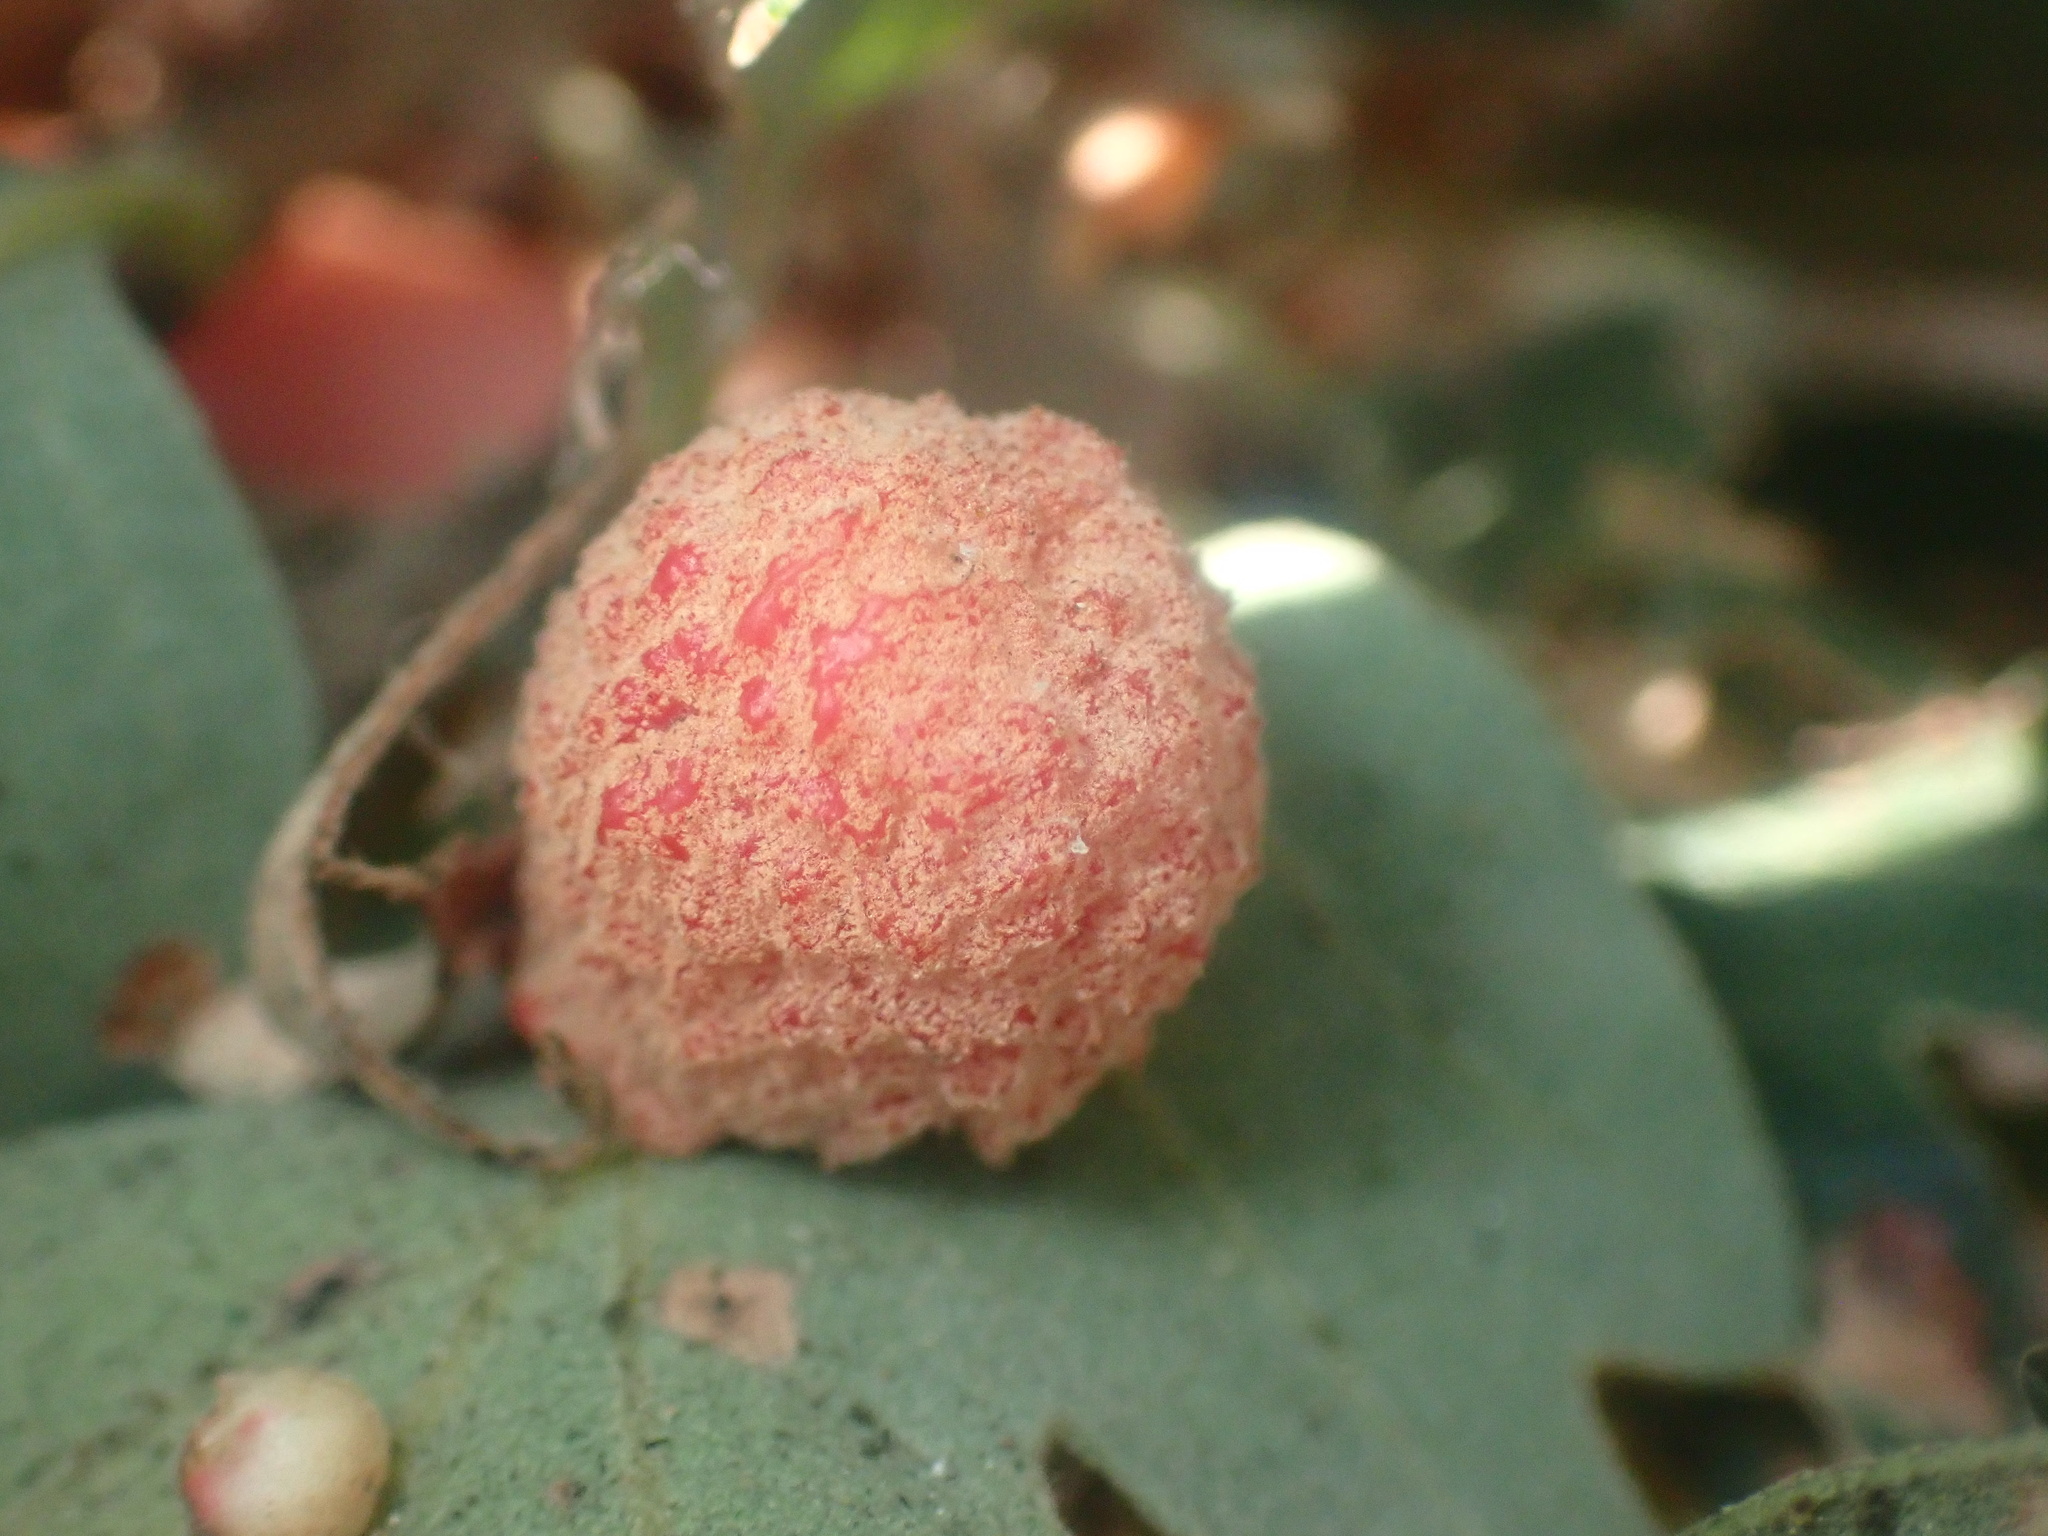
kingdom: Animalia
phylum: Arthropoda
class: Insecta
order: Hymenoptera
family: Cynipidae
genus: Cynips
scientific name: Cynips conspicua
